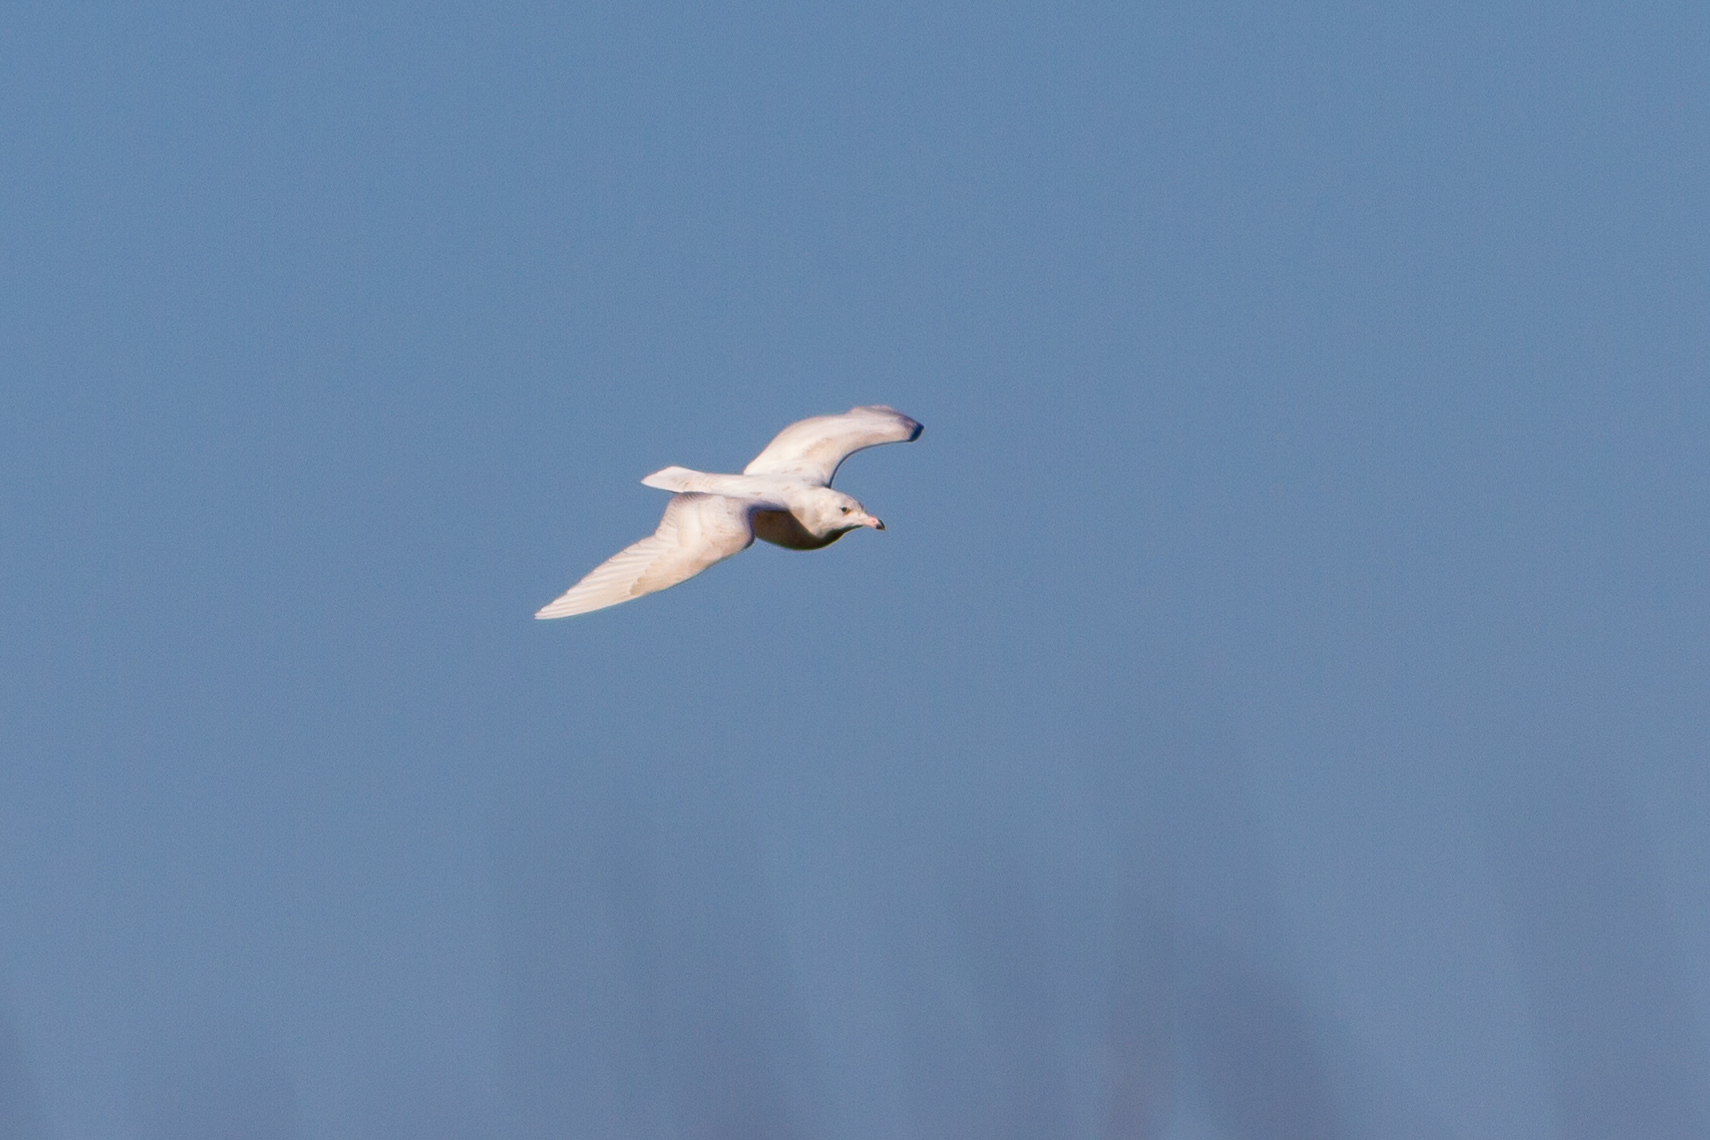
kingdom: Animalia
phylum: Chordata
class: Aves
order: Charadriiformes
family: Laridae
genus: Larus
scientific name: Larus hyperboreus
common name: Glaucous gull
